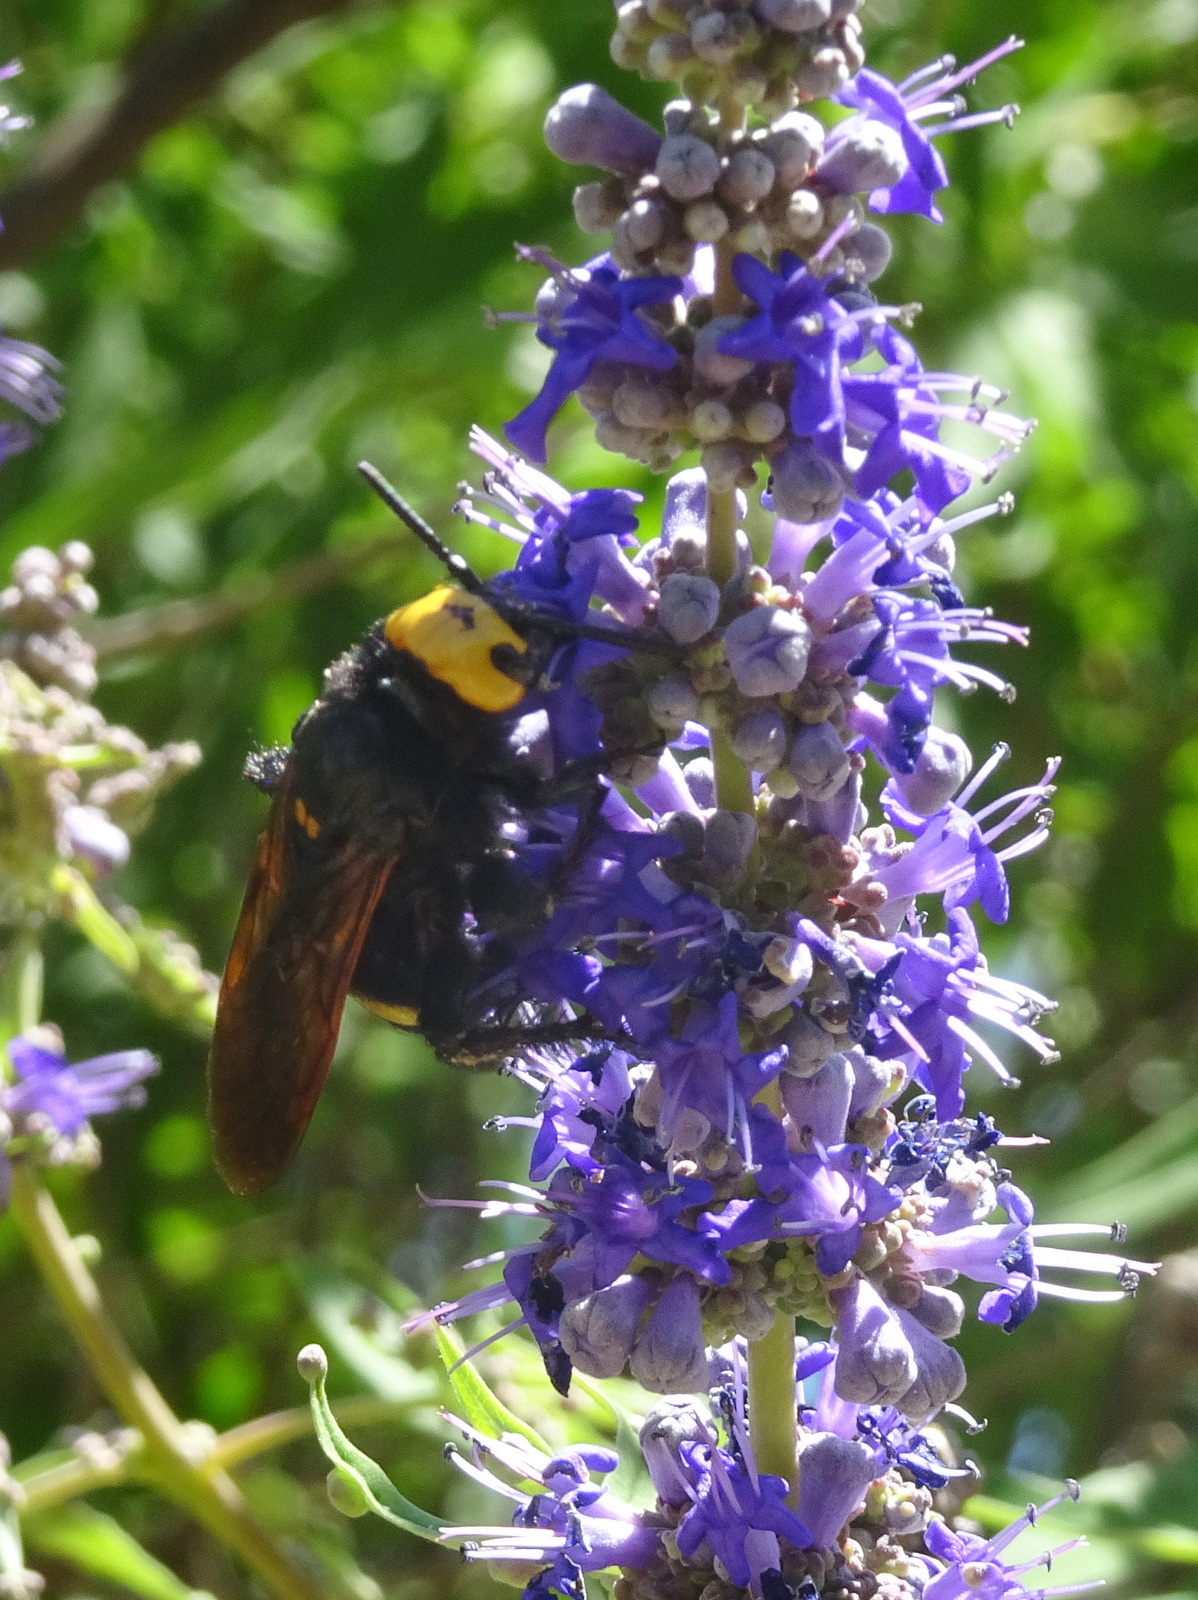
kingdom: Animalia
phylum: Arthropoda
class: Insecta
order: Hymenoptera
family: Scoliidae
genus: Megascolia
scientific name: Megascolia maculata
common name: Mammoth wasp
